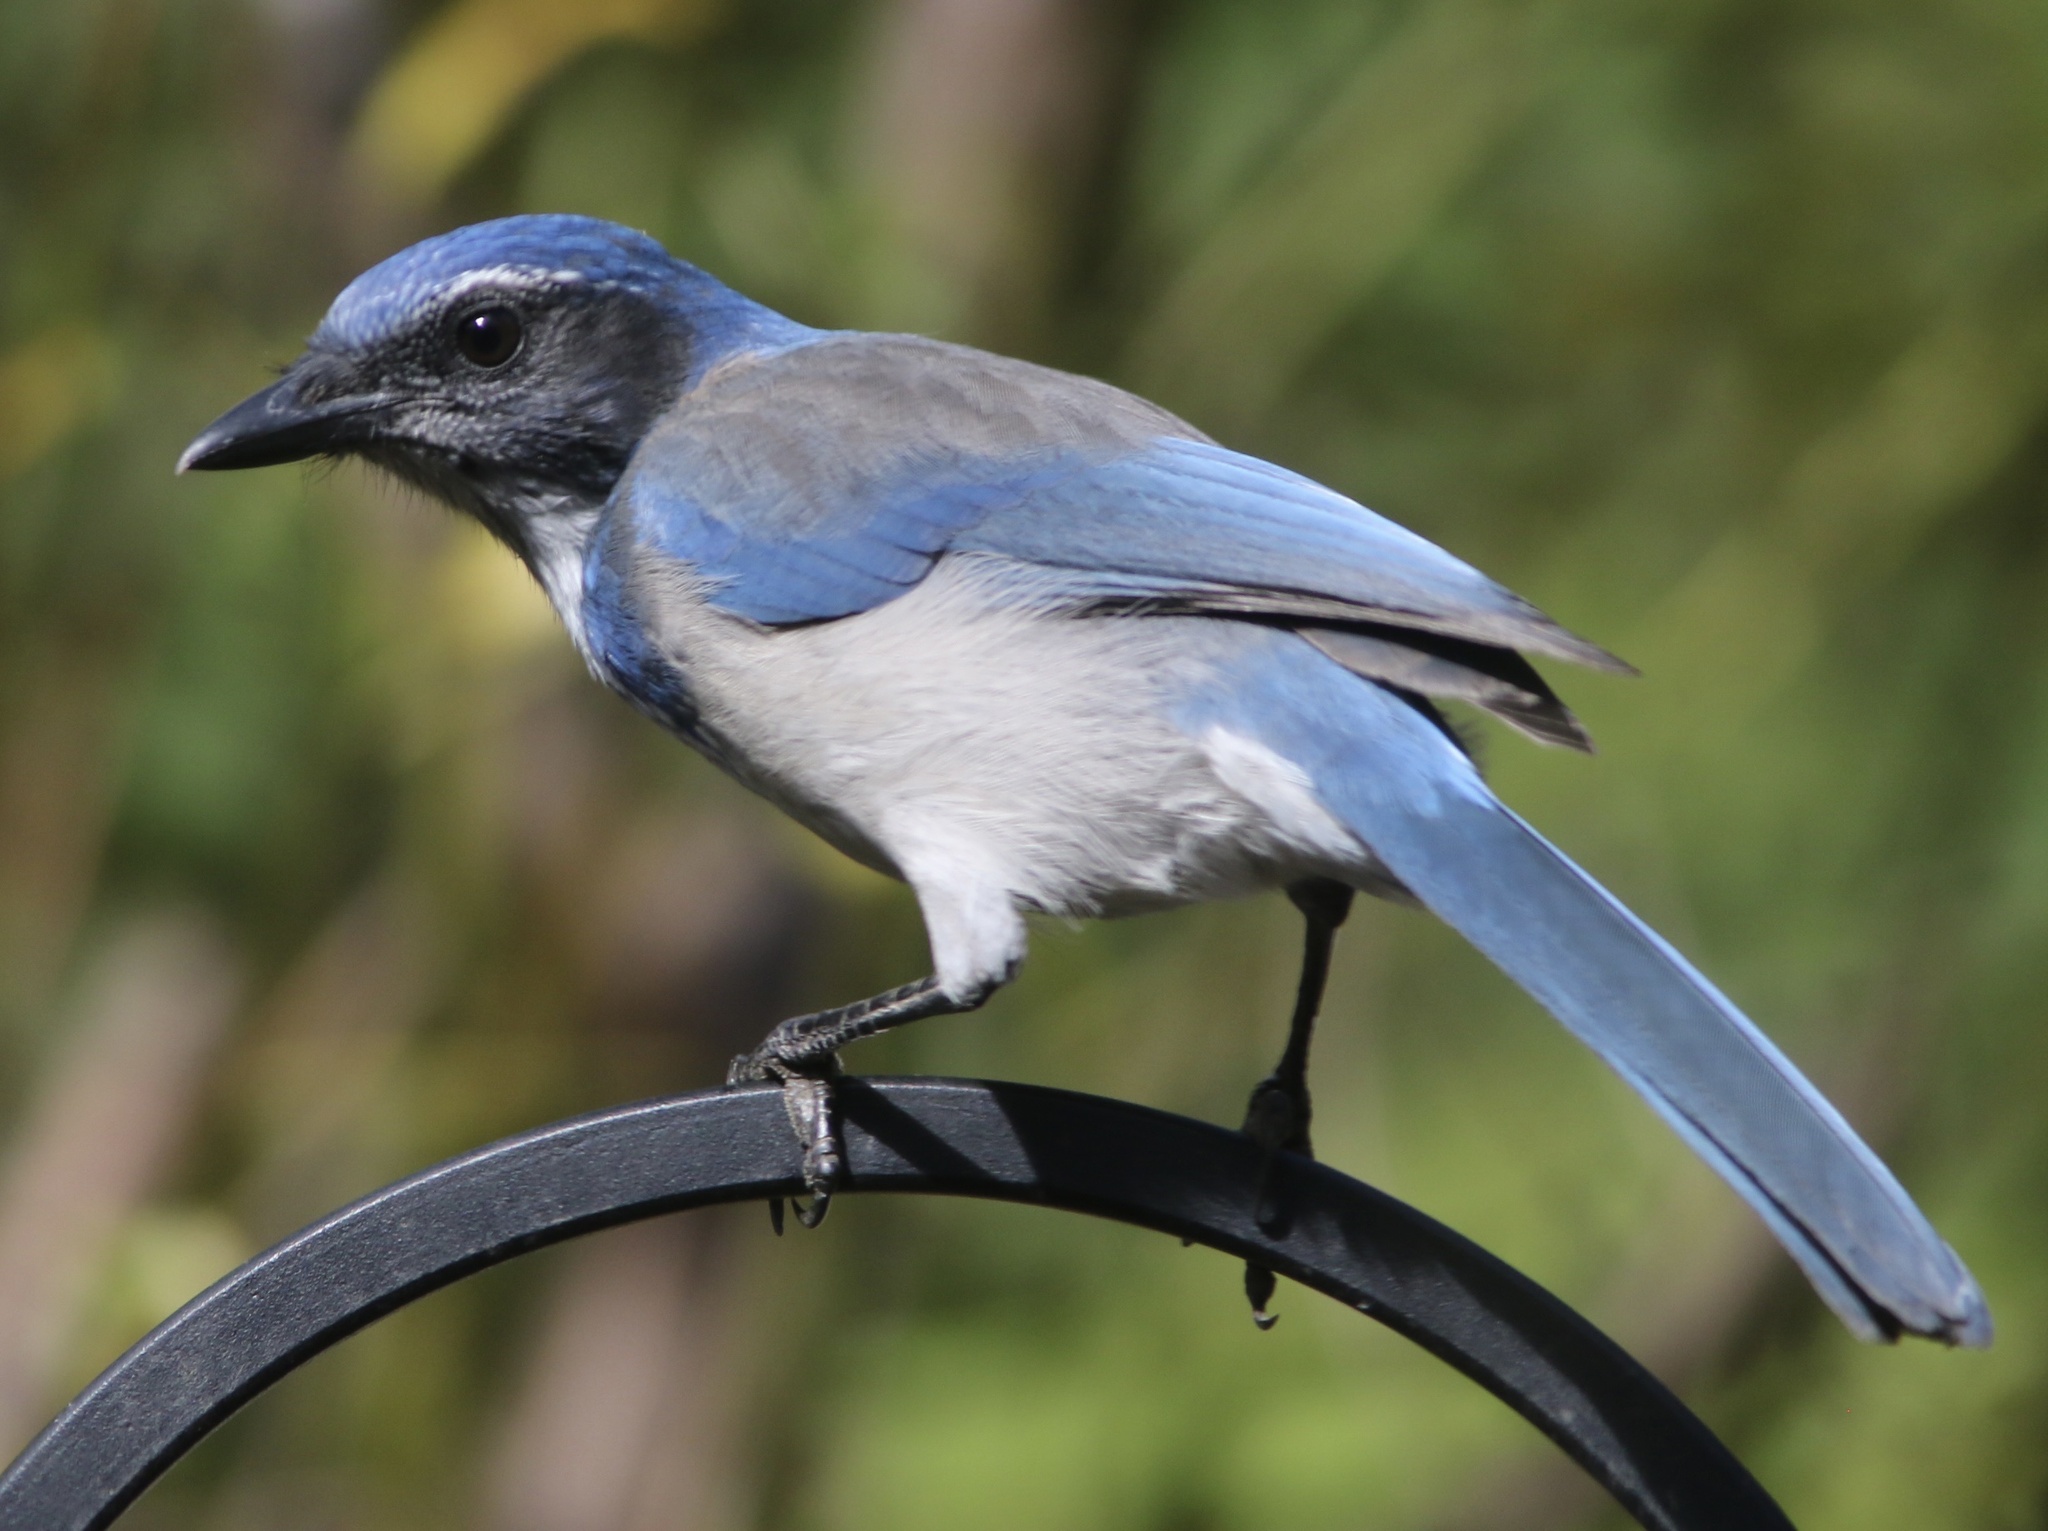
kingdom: Animalia
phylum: Chordata
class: Aves
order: Passeriformes
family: Corvidae
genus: Aphelocoma
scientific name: Aphelocoma californica
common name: California scrub-jay
